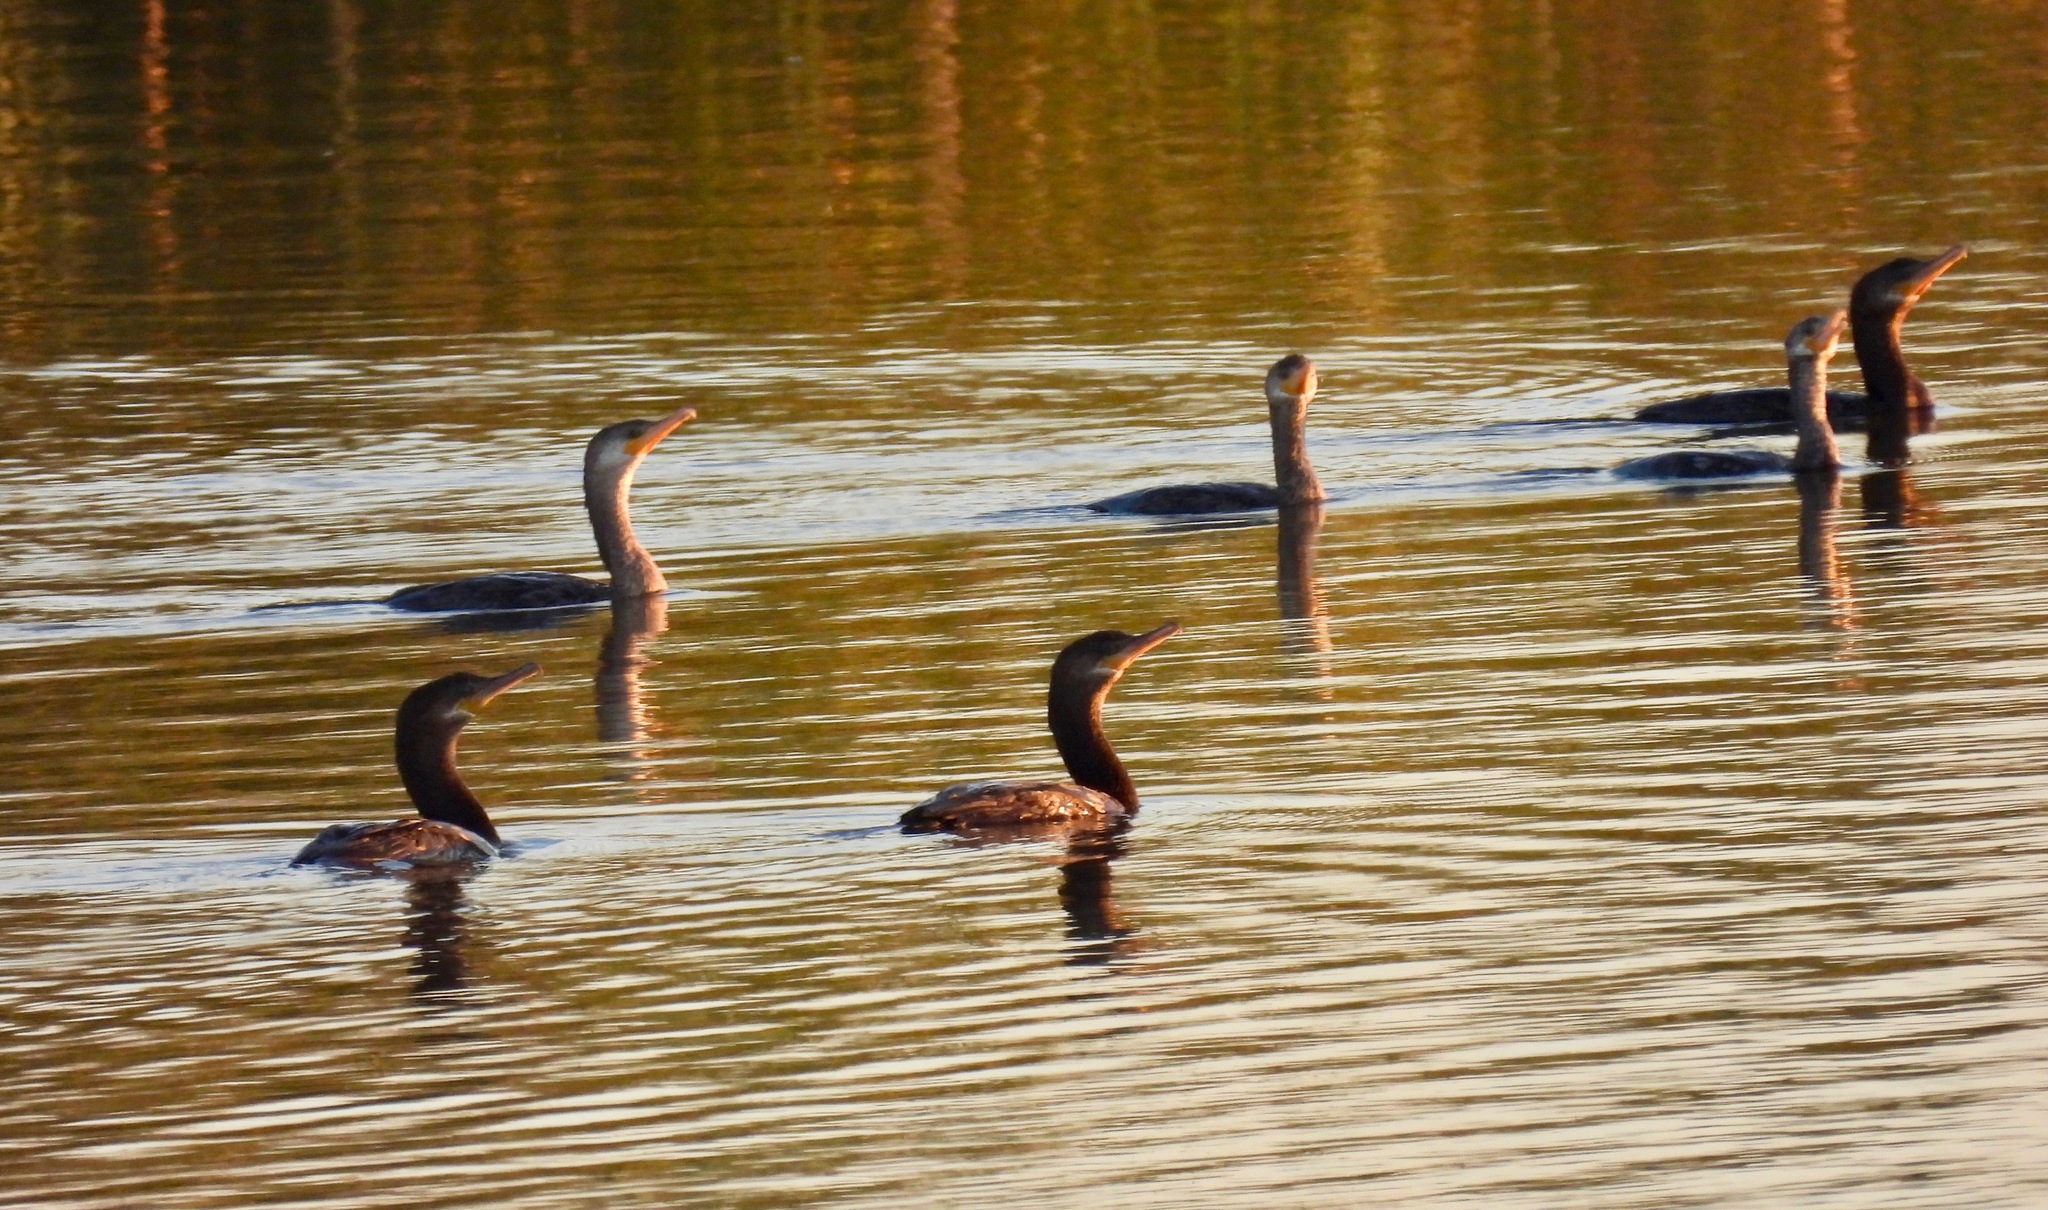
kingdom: Animalia
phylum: Chordata
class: Aves
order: Suliformes
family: Phalacrocoracidae
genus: Phalacrocorax
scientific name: Phalacrocorax brasilianus
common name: Neotropic cormorant
